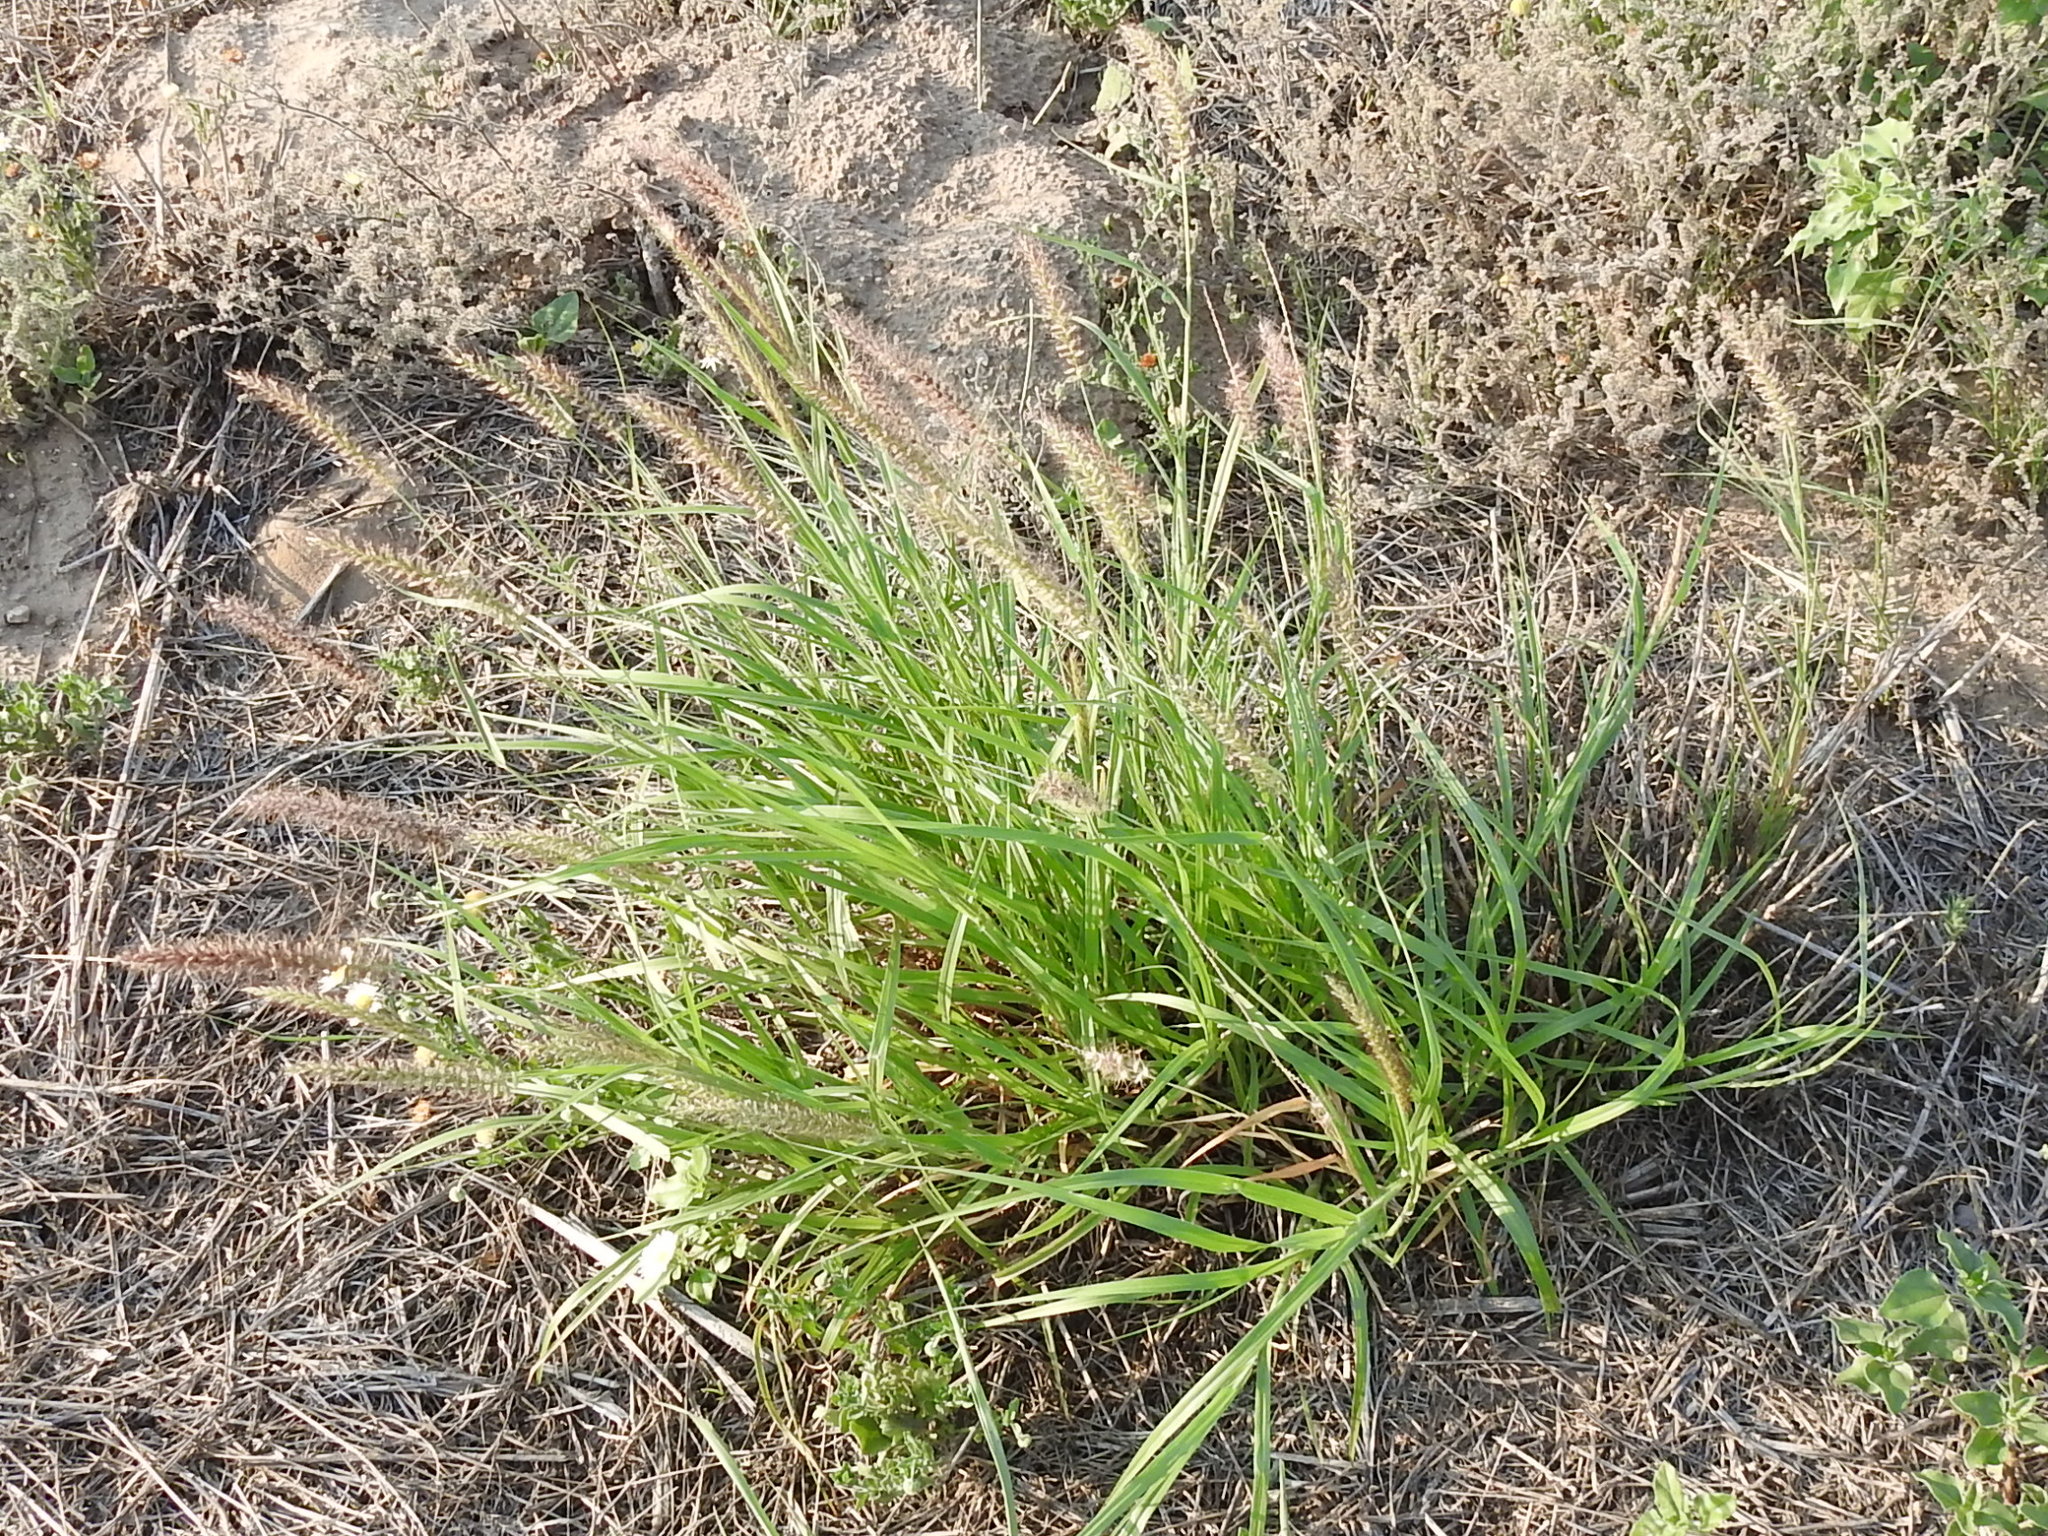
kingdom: Plantae
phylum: Tracheophyta
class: Liliopsida
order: Poales
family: Poaceae
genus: Cenchrus
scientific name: Cenchrus ciliaris
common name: Buffelgrass
